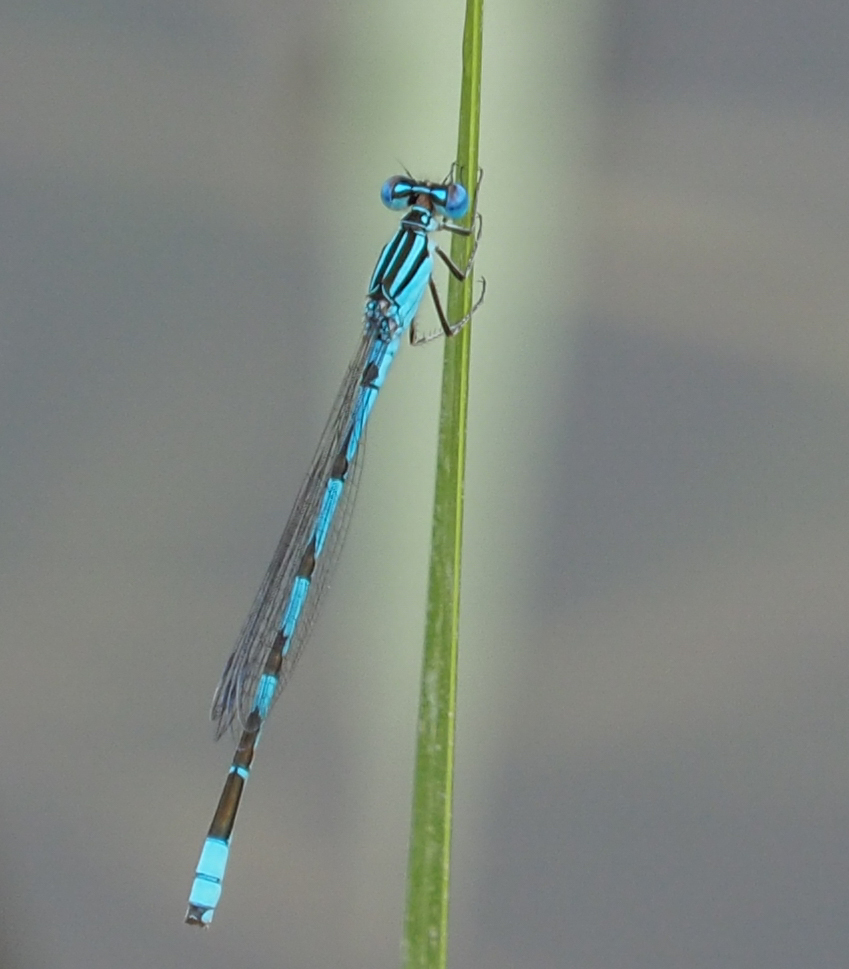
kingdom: Animalia
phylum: Arthropoda
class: Insecta
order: Odonata
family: Coenagrionidae
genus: Enallagma
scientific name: Enallagma durum
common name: Big bluet
